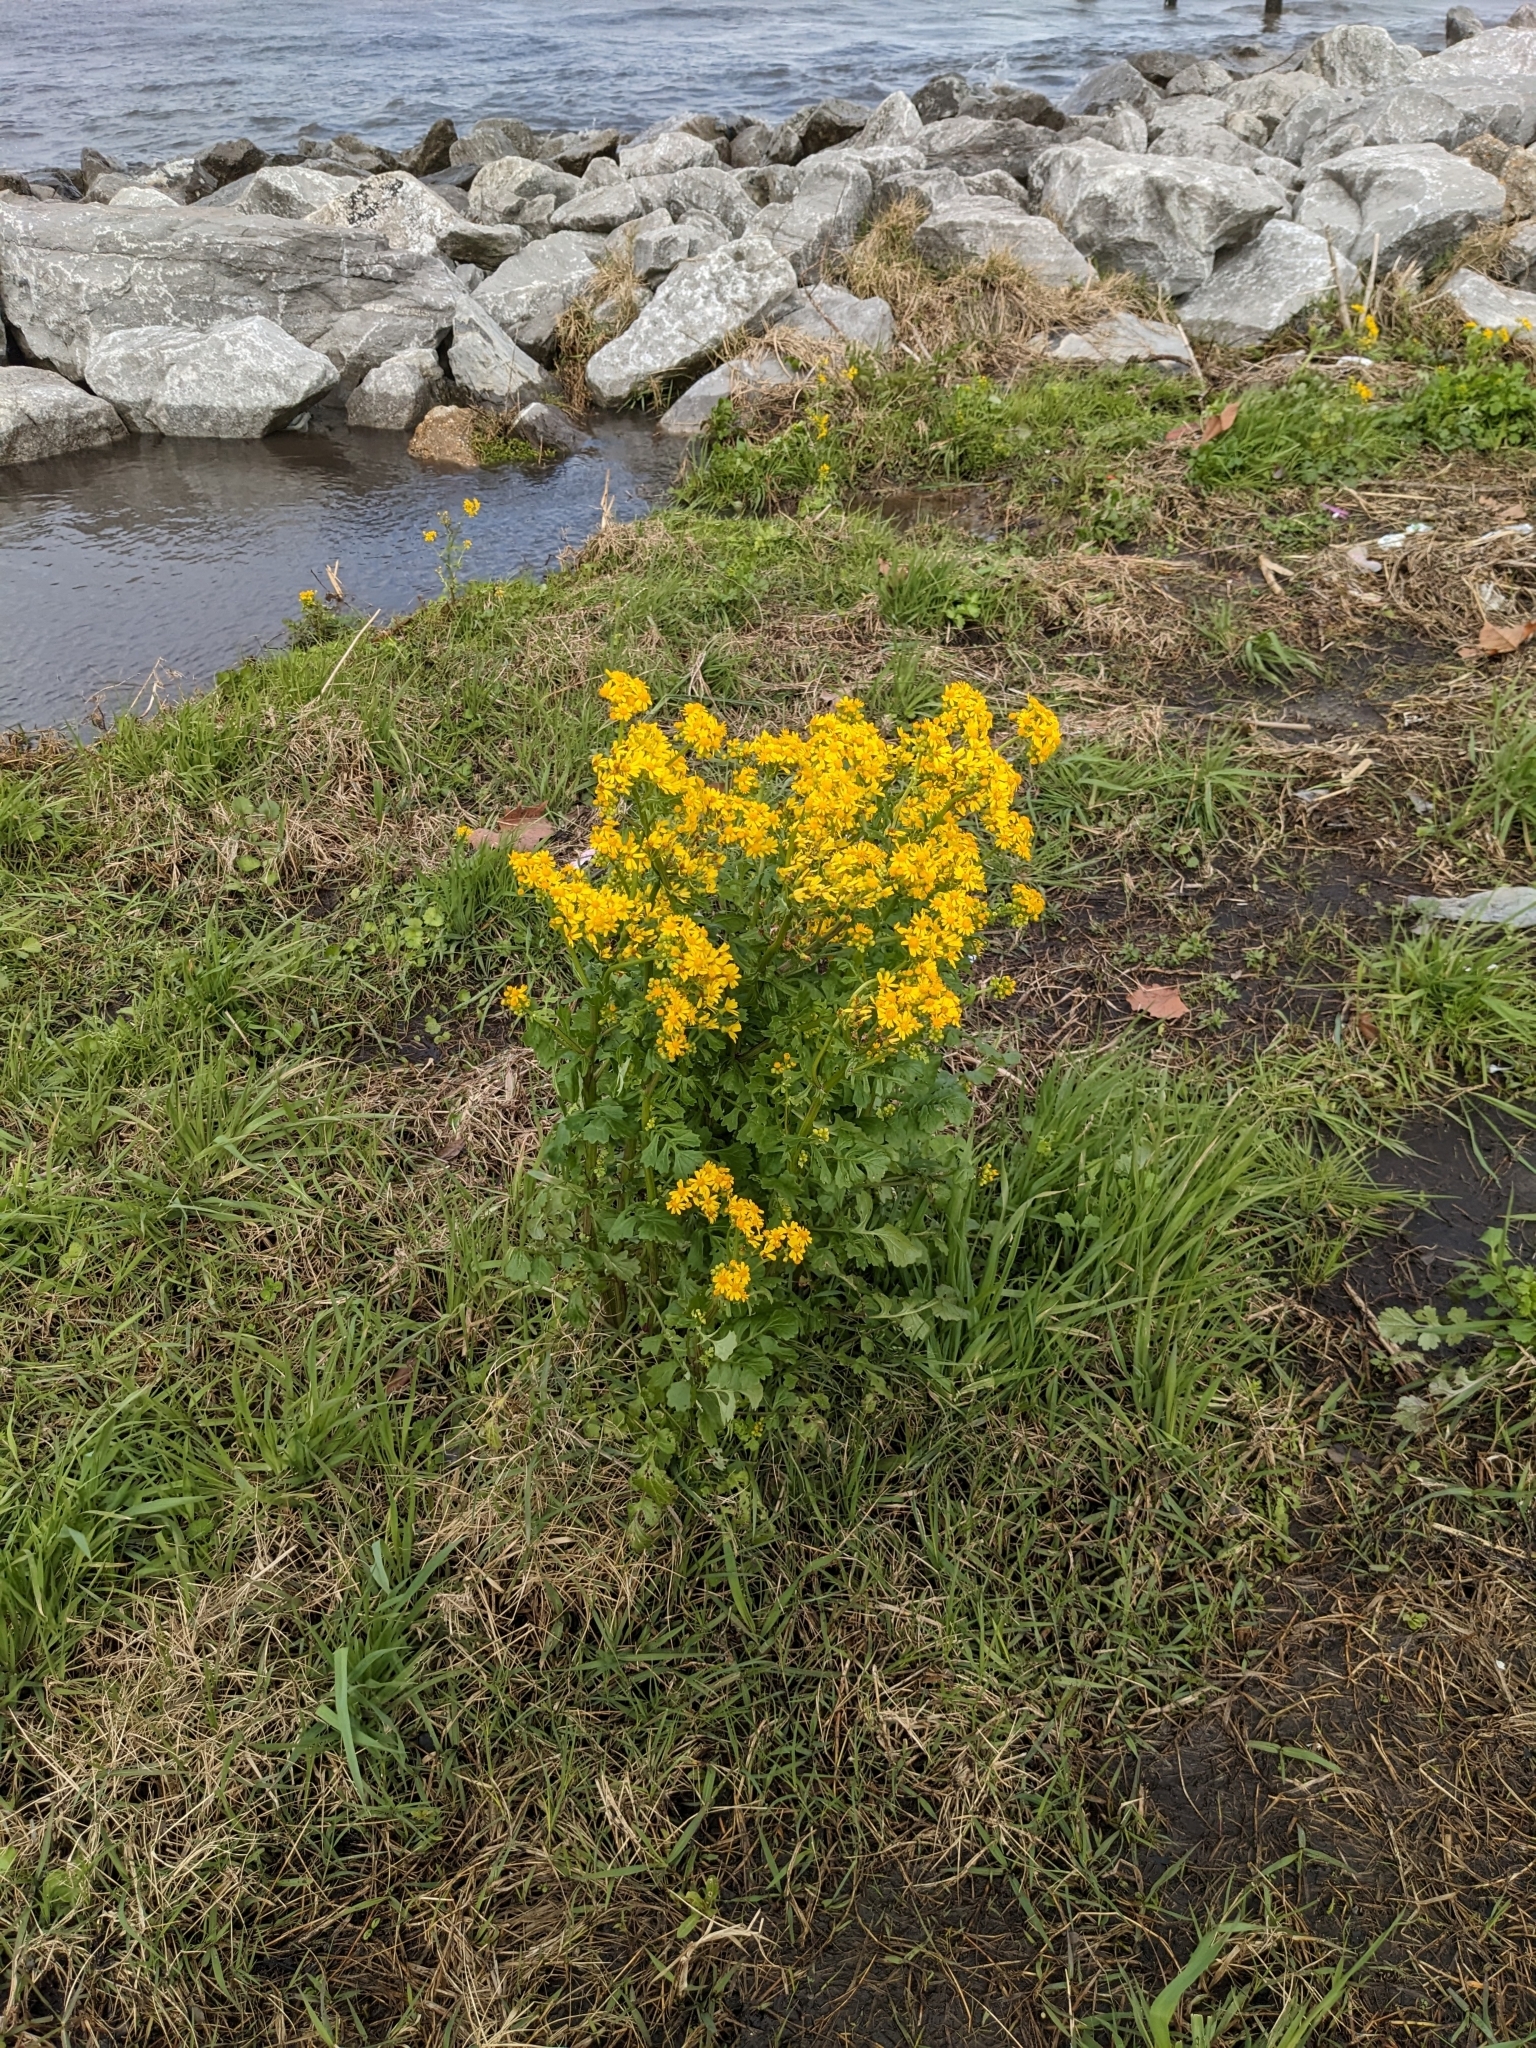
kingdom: Plantae
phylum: Tracheophyta
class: Magnoliopsida
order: Asterales
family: Asteraceae
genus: Packera
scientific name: Packera glabella
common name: Butterweed
